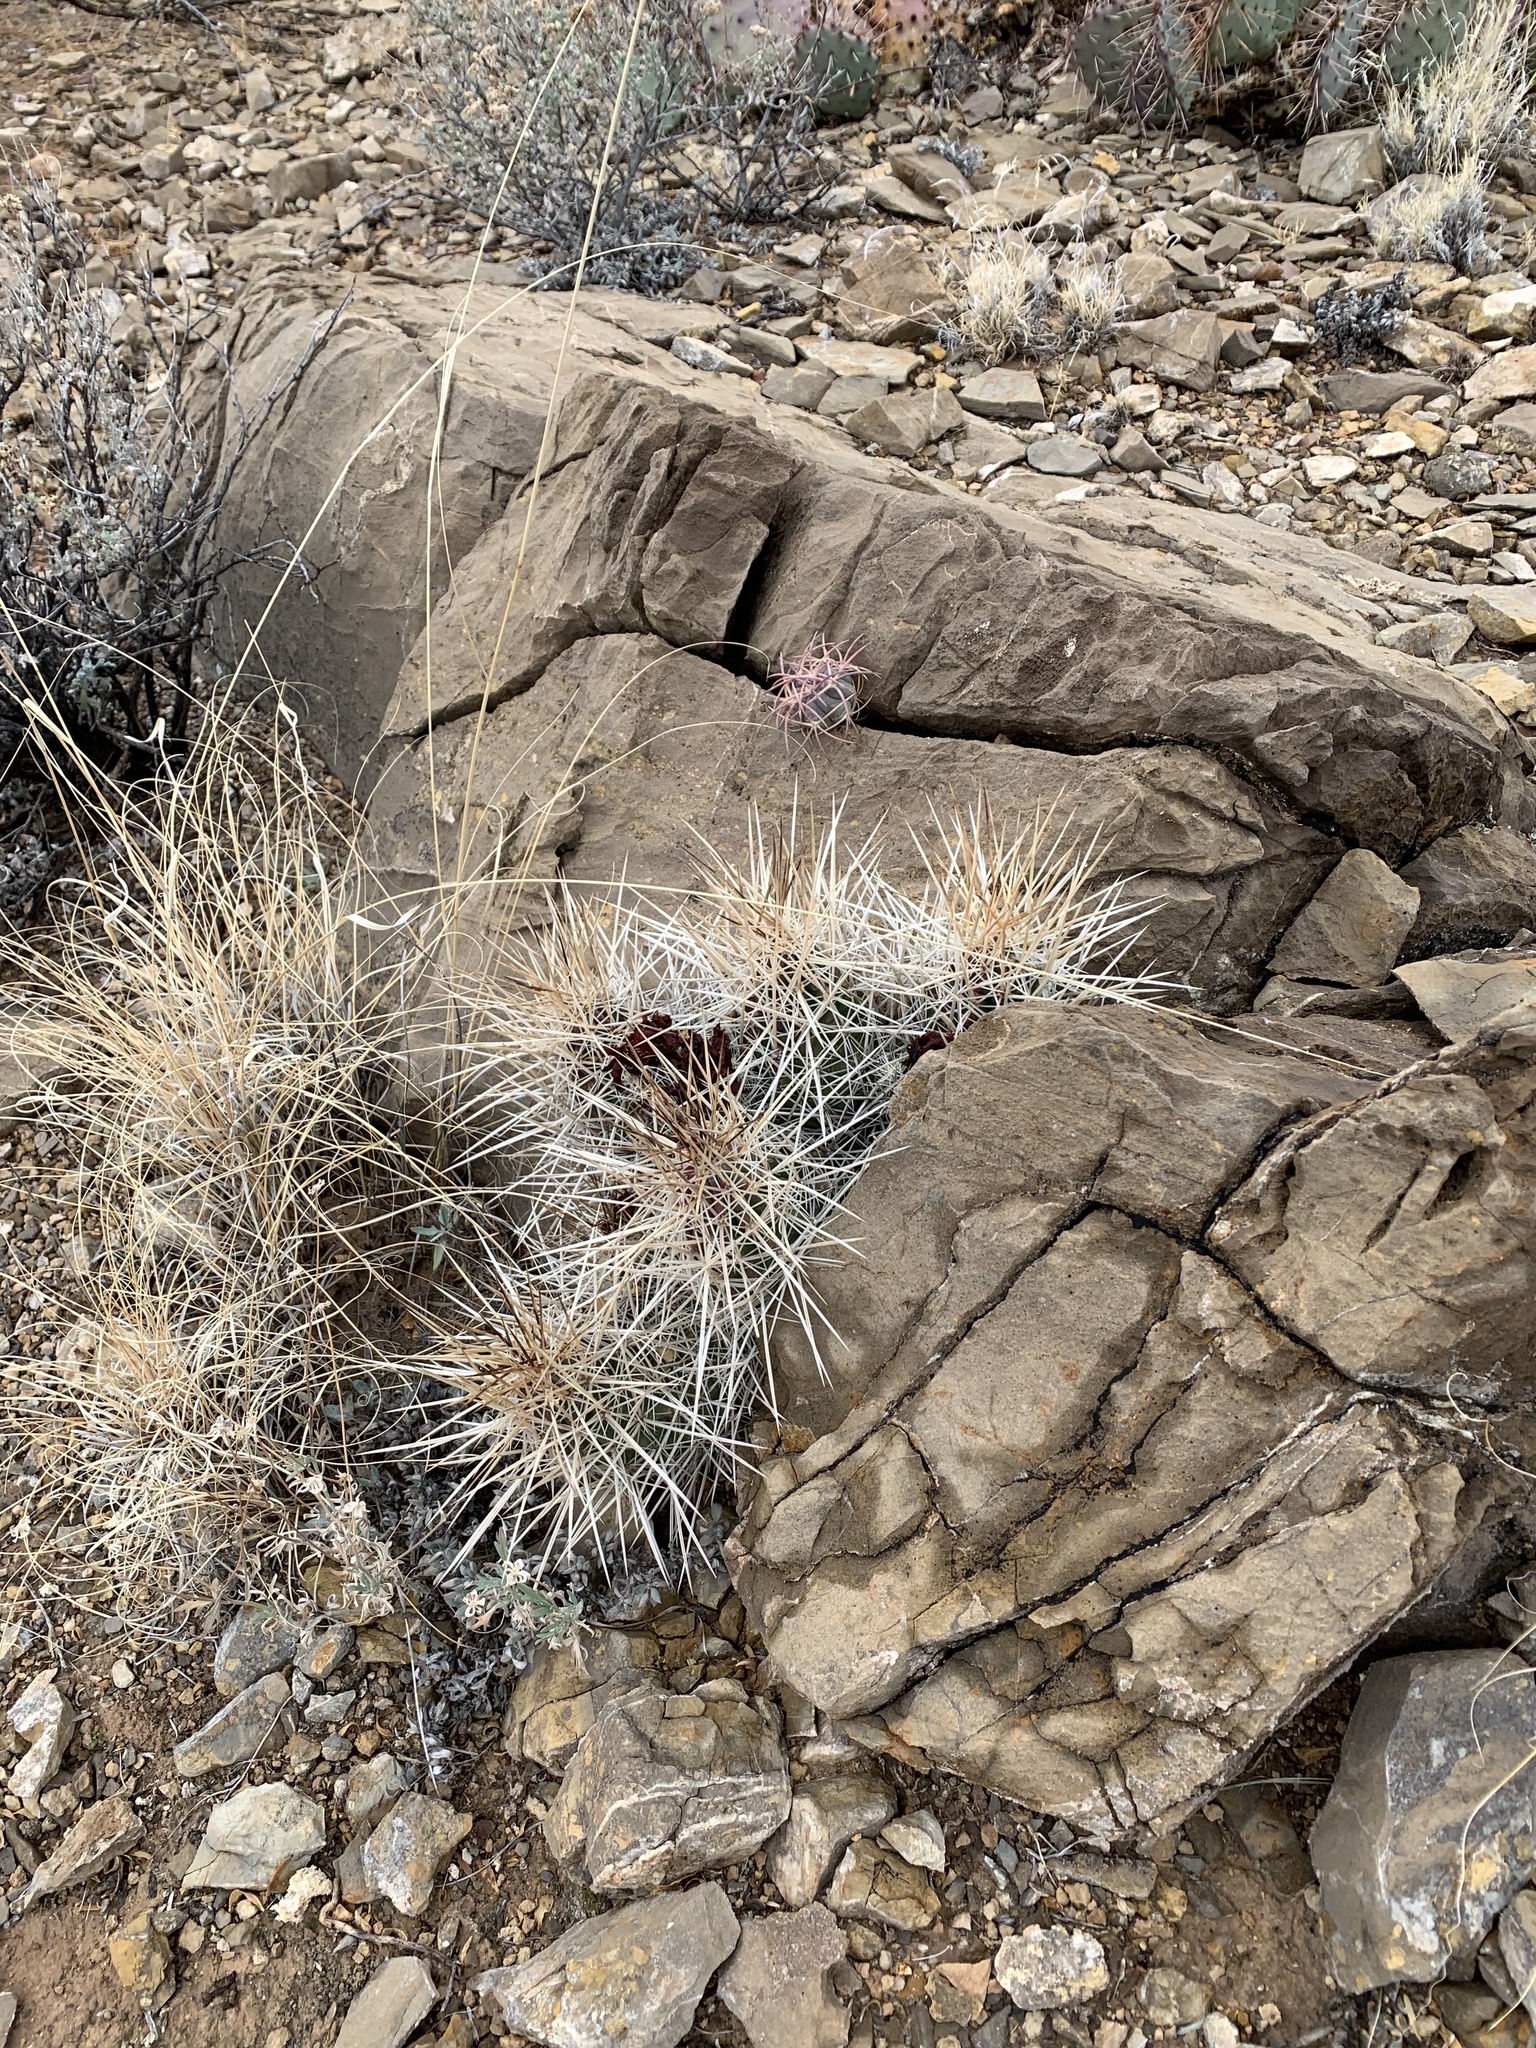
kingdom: Plantae
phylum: Tracheophyta
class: Magnoliopsida
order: Caryophyllales
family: Cactaceae
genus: Echinocereus
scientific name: Echinocereus stramineus
